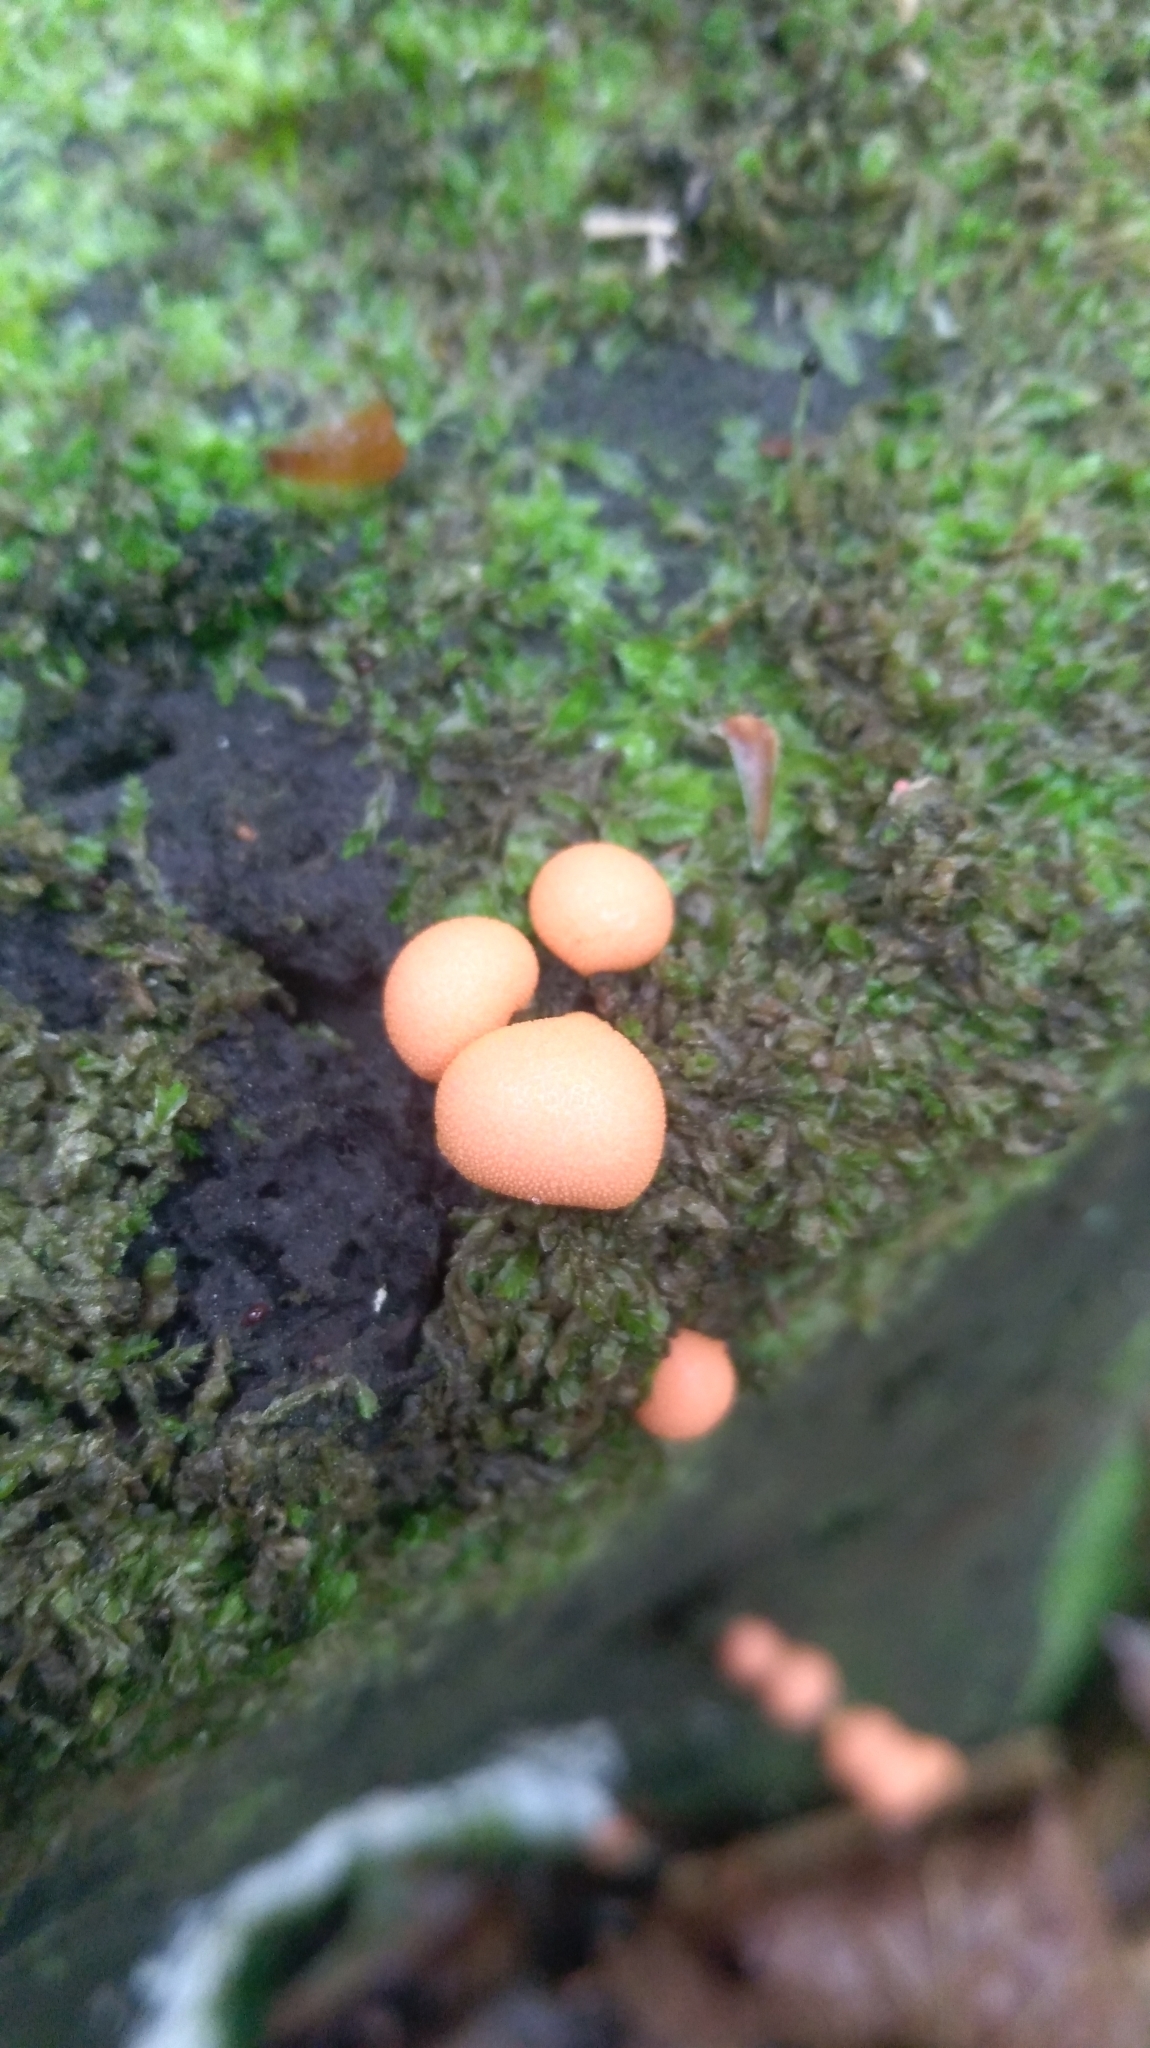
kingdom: Protozoa
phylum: Mycetozoa
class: Myxomycetes
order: Cribrariales
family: Tubiferaceae
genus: Lycogala
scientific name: Lycogala epidendrum
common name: Wolf's milk
